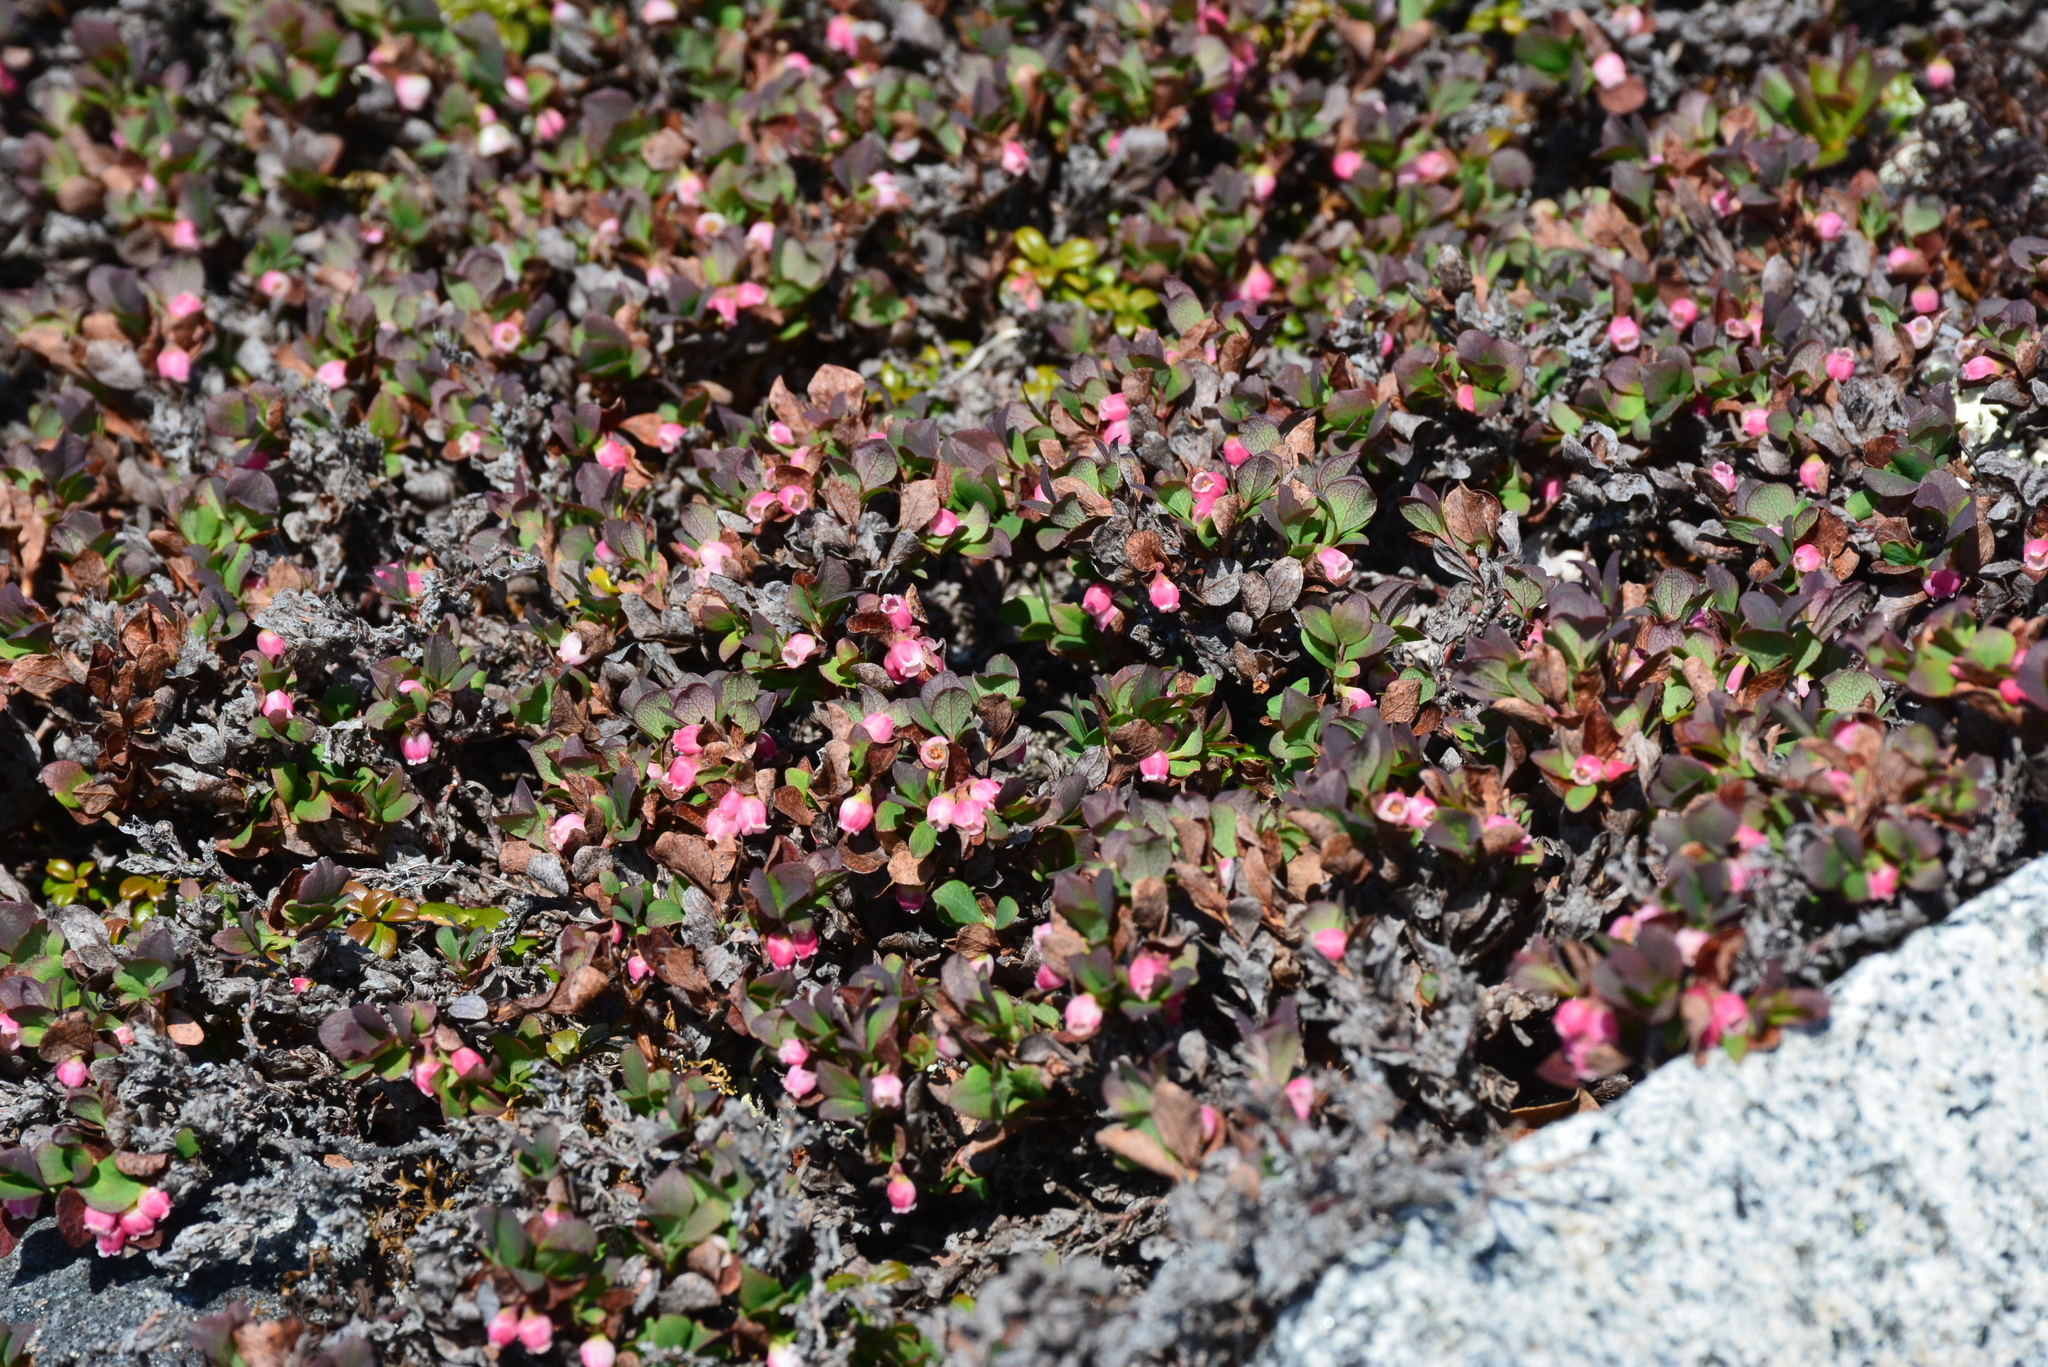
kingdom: Plantae
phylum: Tracheophyta
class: Magnoliopsida
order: Ericales
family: Ericaceae
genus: Vaccinium
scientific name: Vaccinium uliginosum
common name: Bog bilberry
